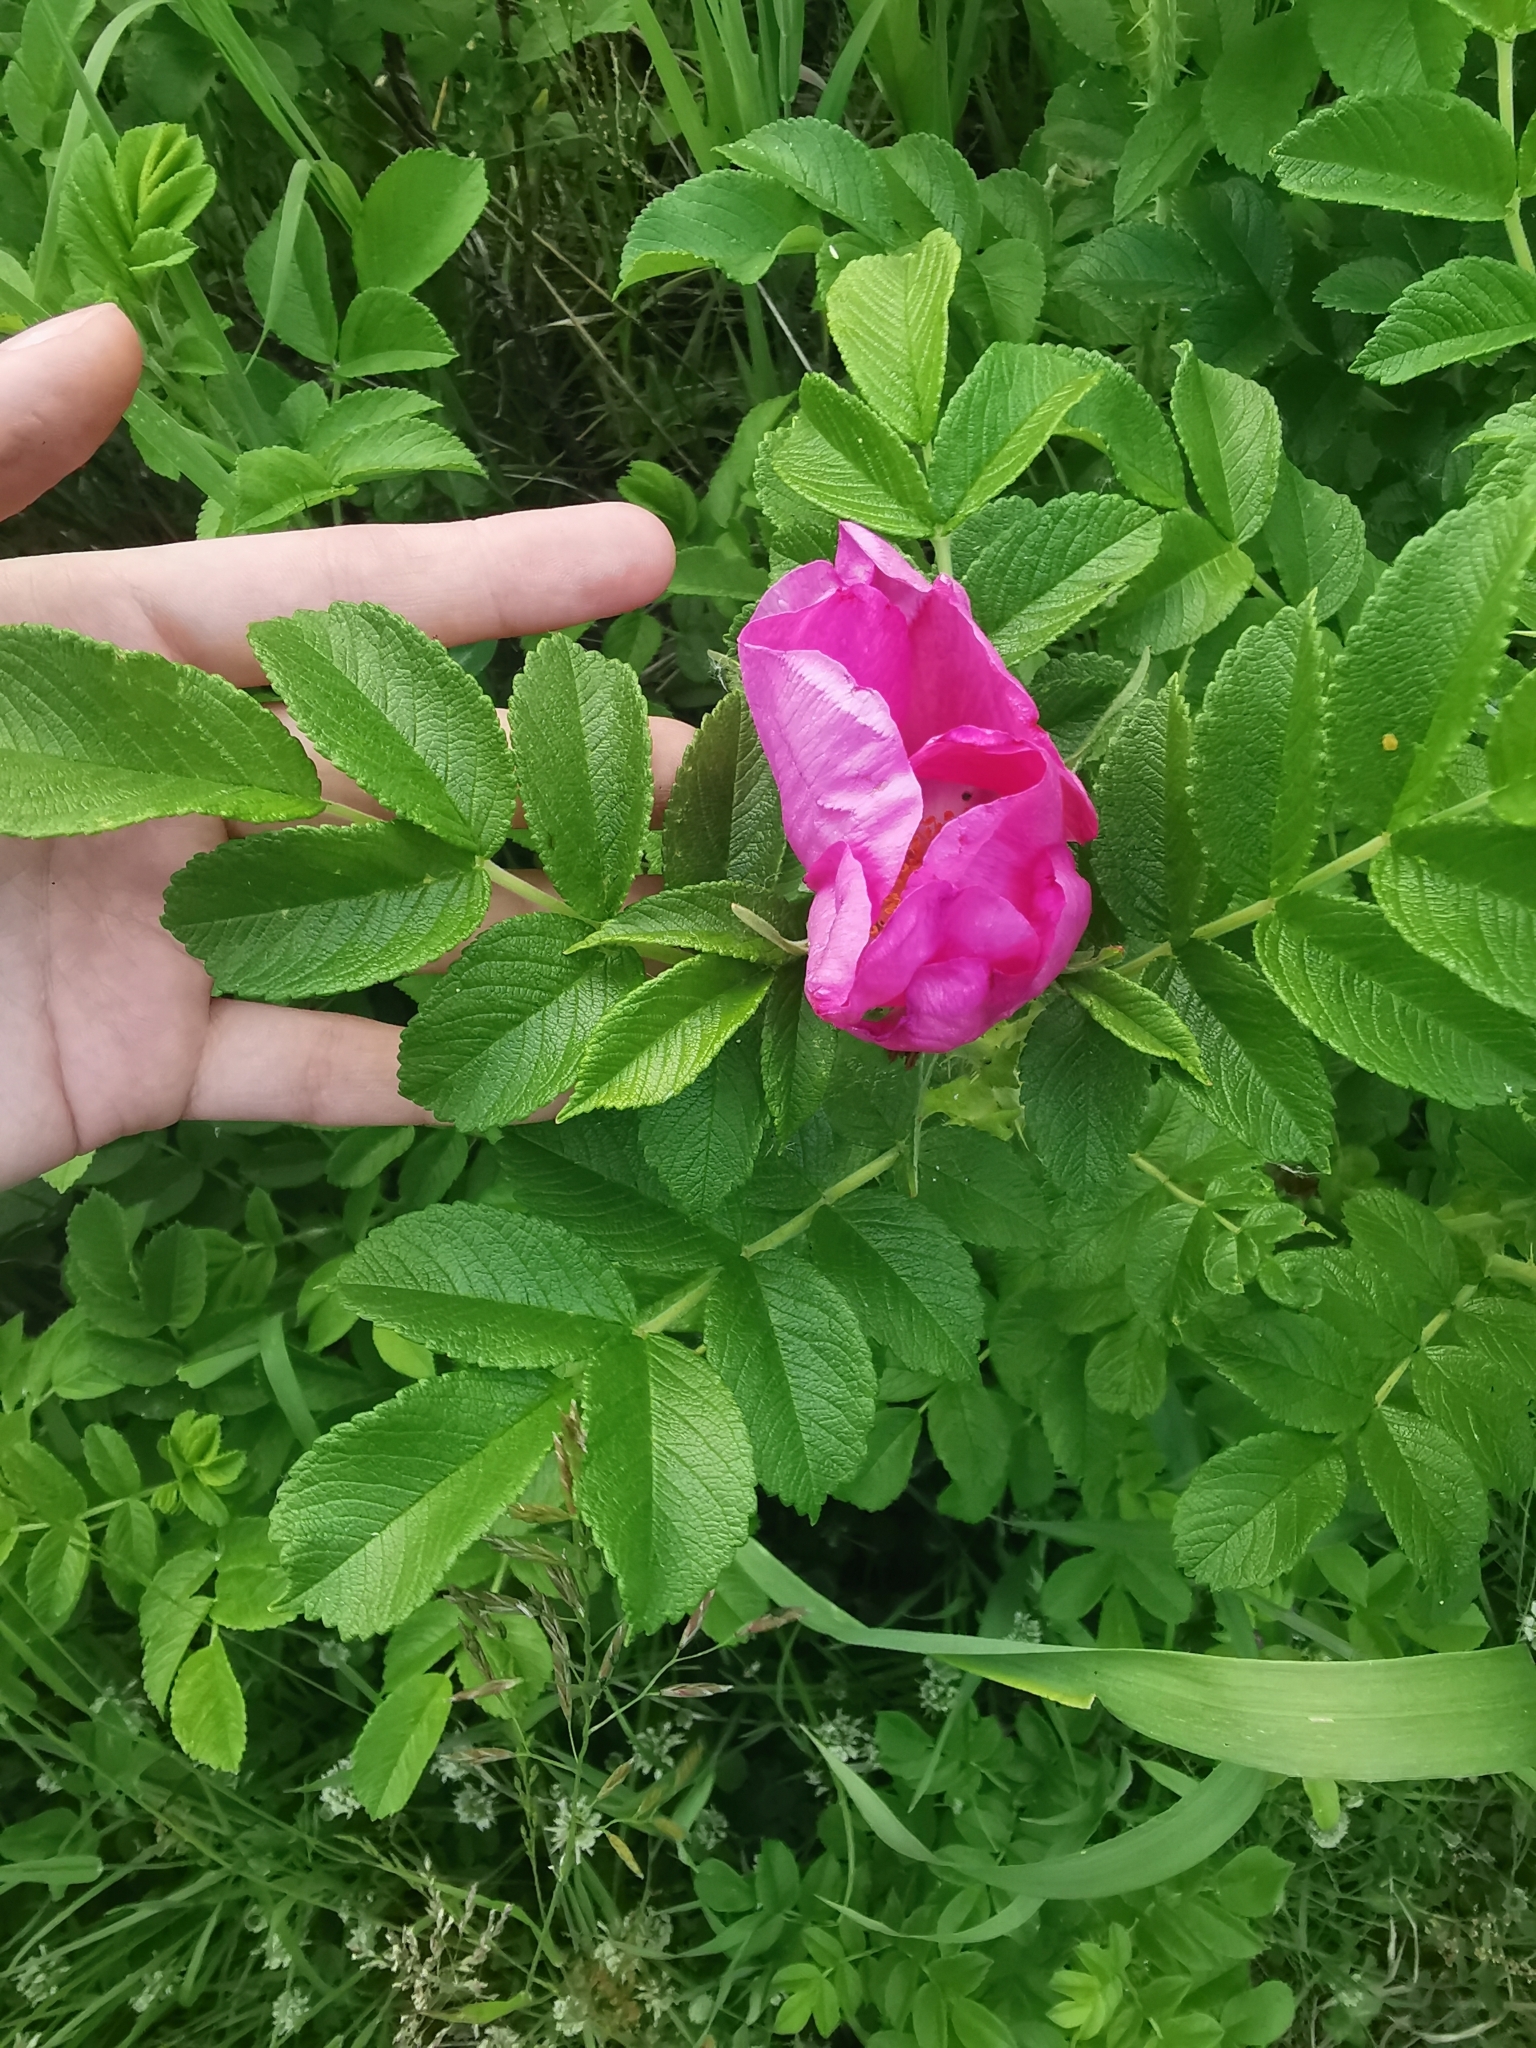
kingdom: Plantae
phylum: Tracheophyta
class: Magnoliopsida
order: Rosales
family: Rosaceae
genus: Rosa
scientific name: Rosa rugosa
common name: Japanese rose
